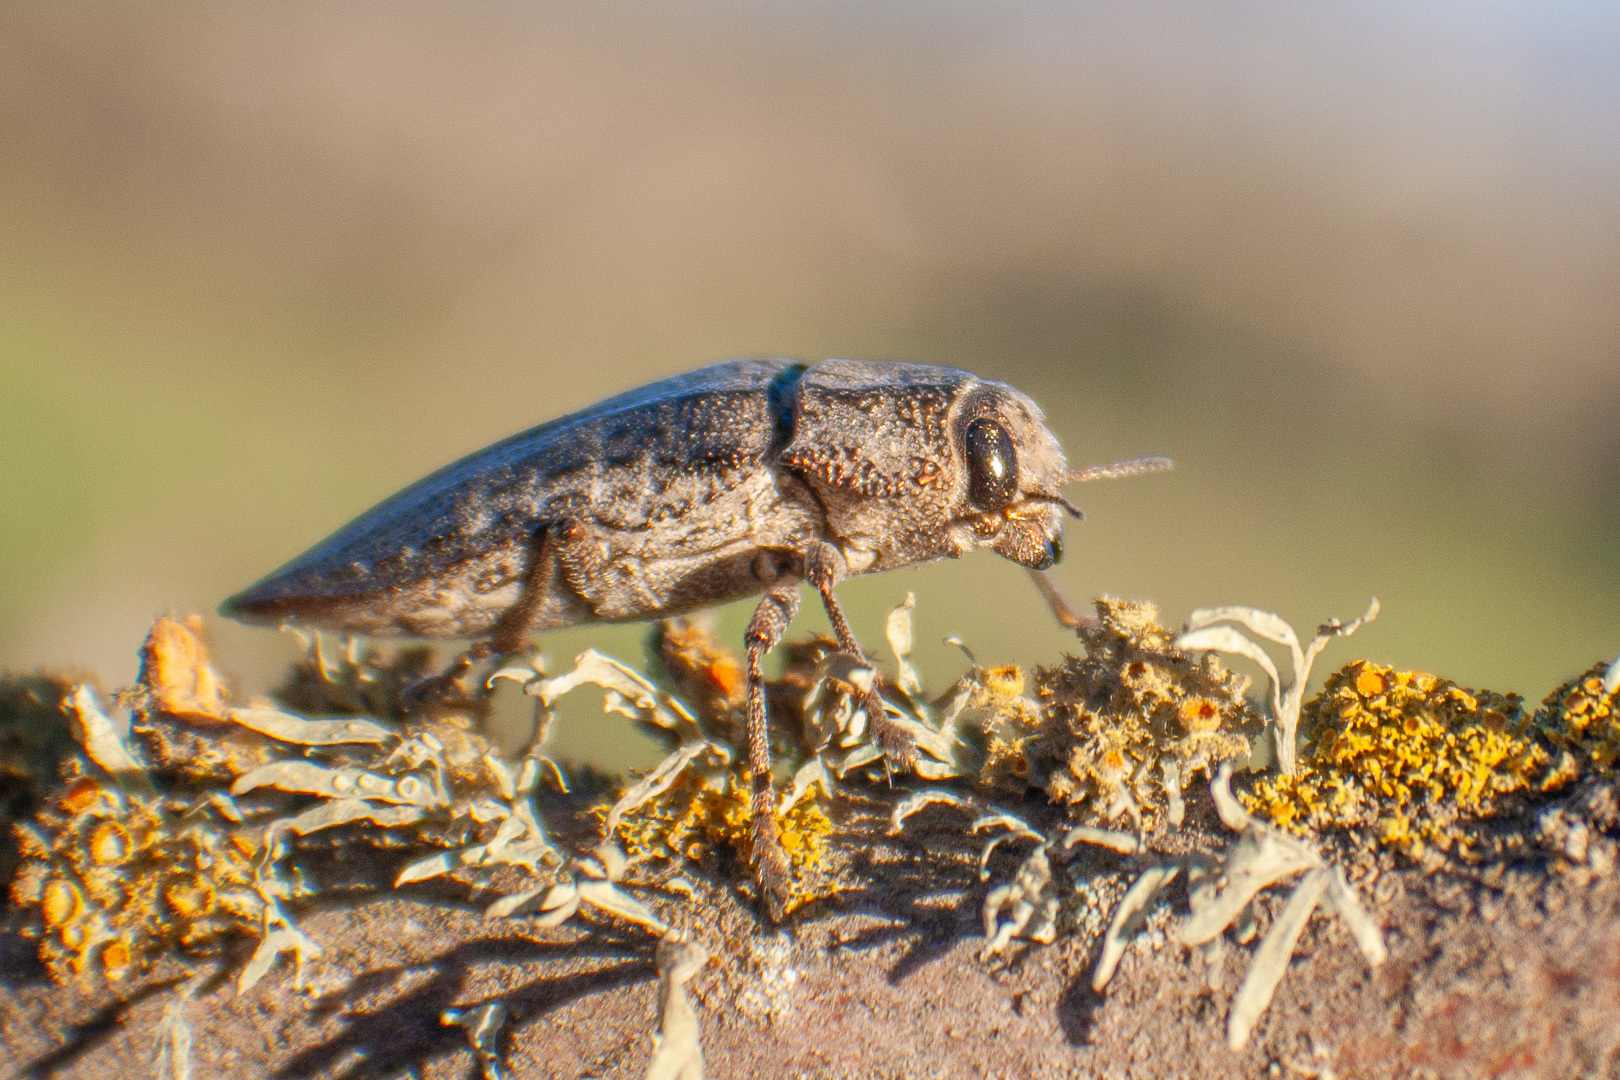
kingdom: Animalia
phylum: Arthropoda
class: Insecta
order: Coleoptera
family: Buprestidae
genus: Ectinogonia
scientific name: Ectinogonia buquetii
